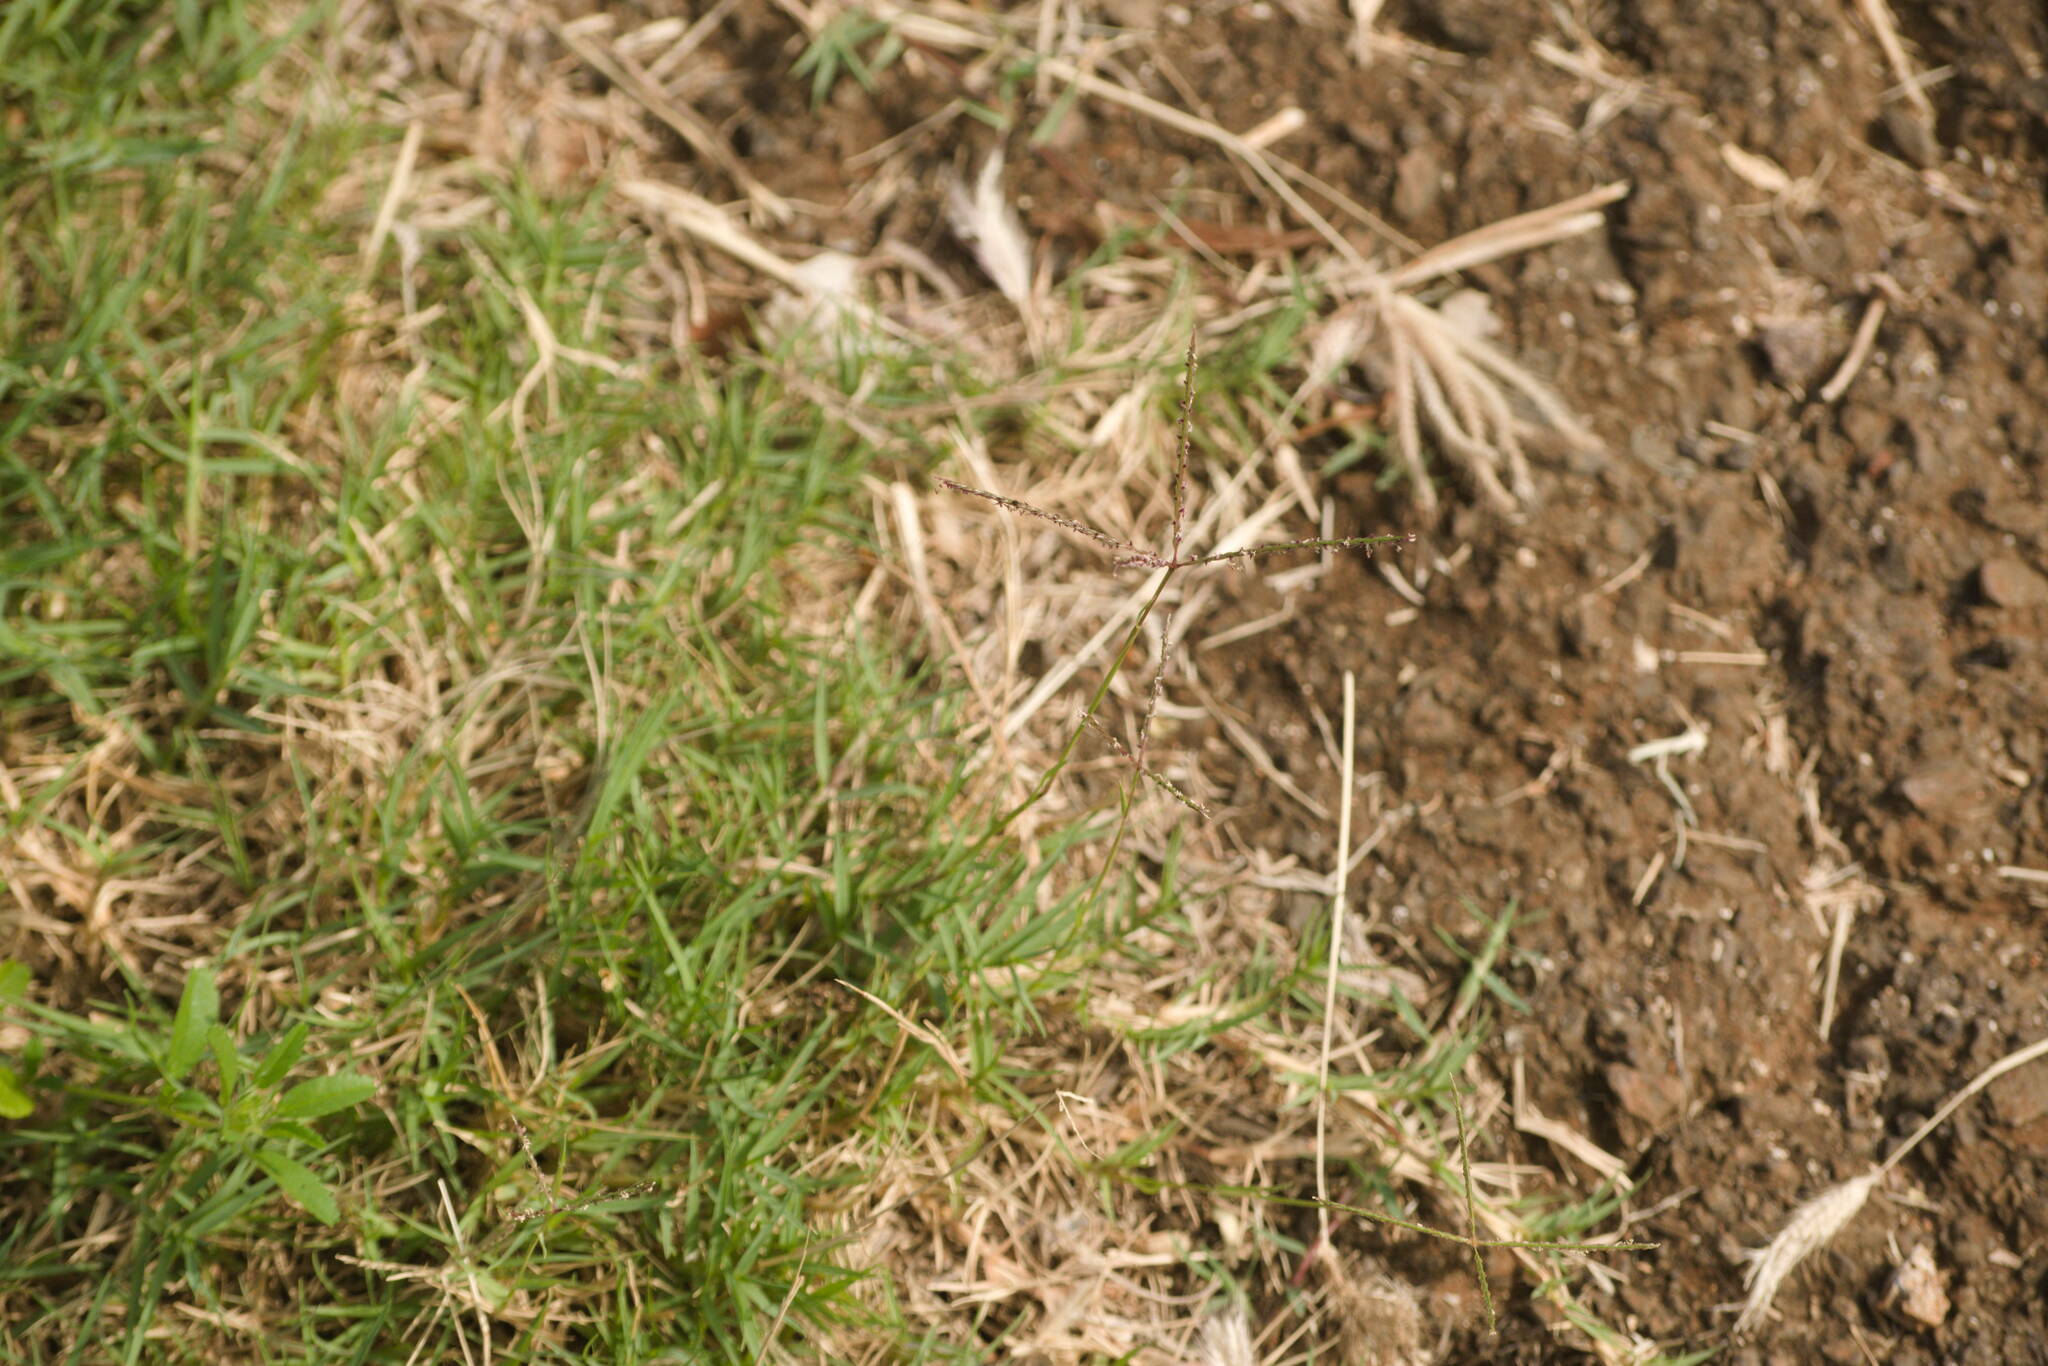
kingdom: Plantae
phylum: Tracheophyta
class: Liliopsida
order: Poales
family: Poaceae
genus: Cynodon
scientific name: Cynodon dactylon
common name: Bermuda grass
